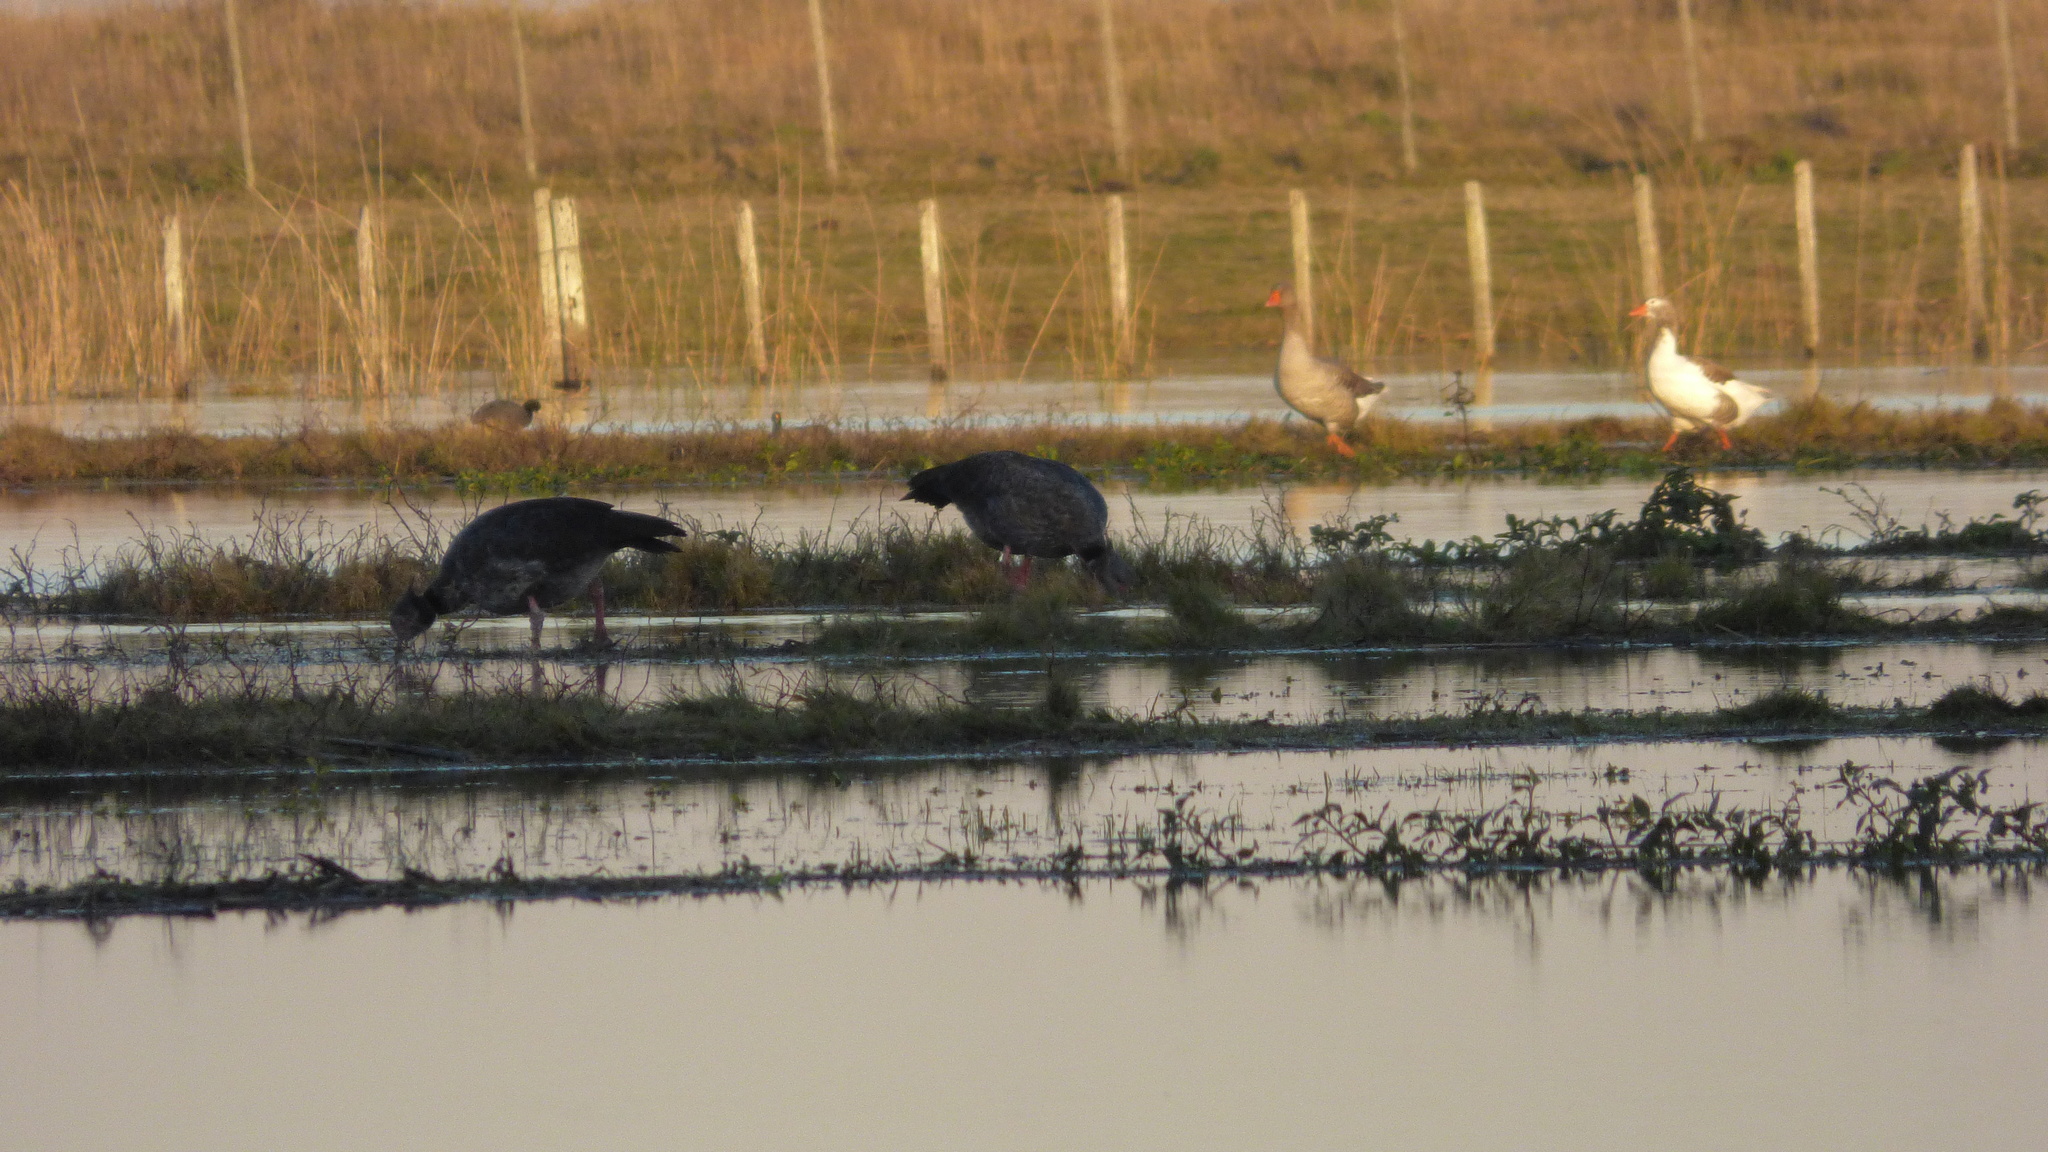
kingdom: Animalia
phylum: Chordata
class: Aves
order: Anseriformes
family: Anhimidae
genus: Chauna
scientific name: Chauna torquata
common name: Southern screamer
